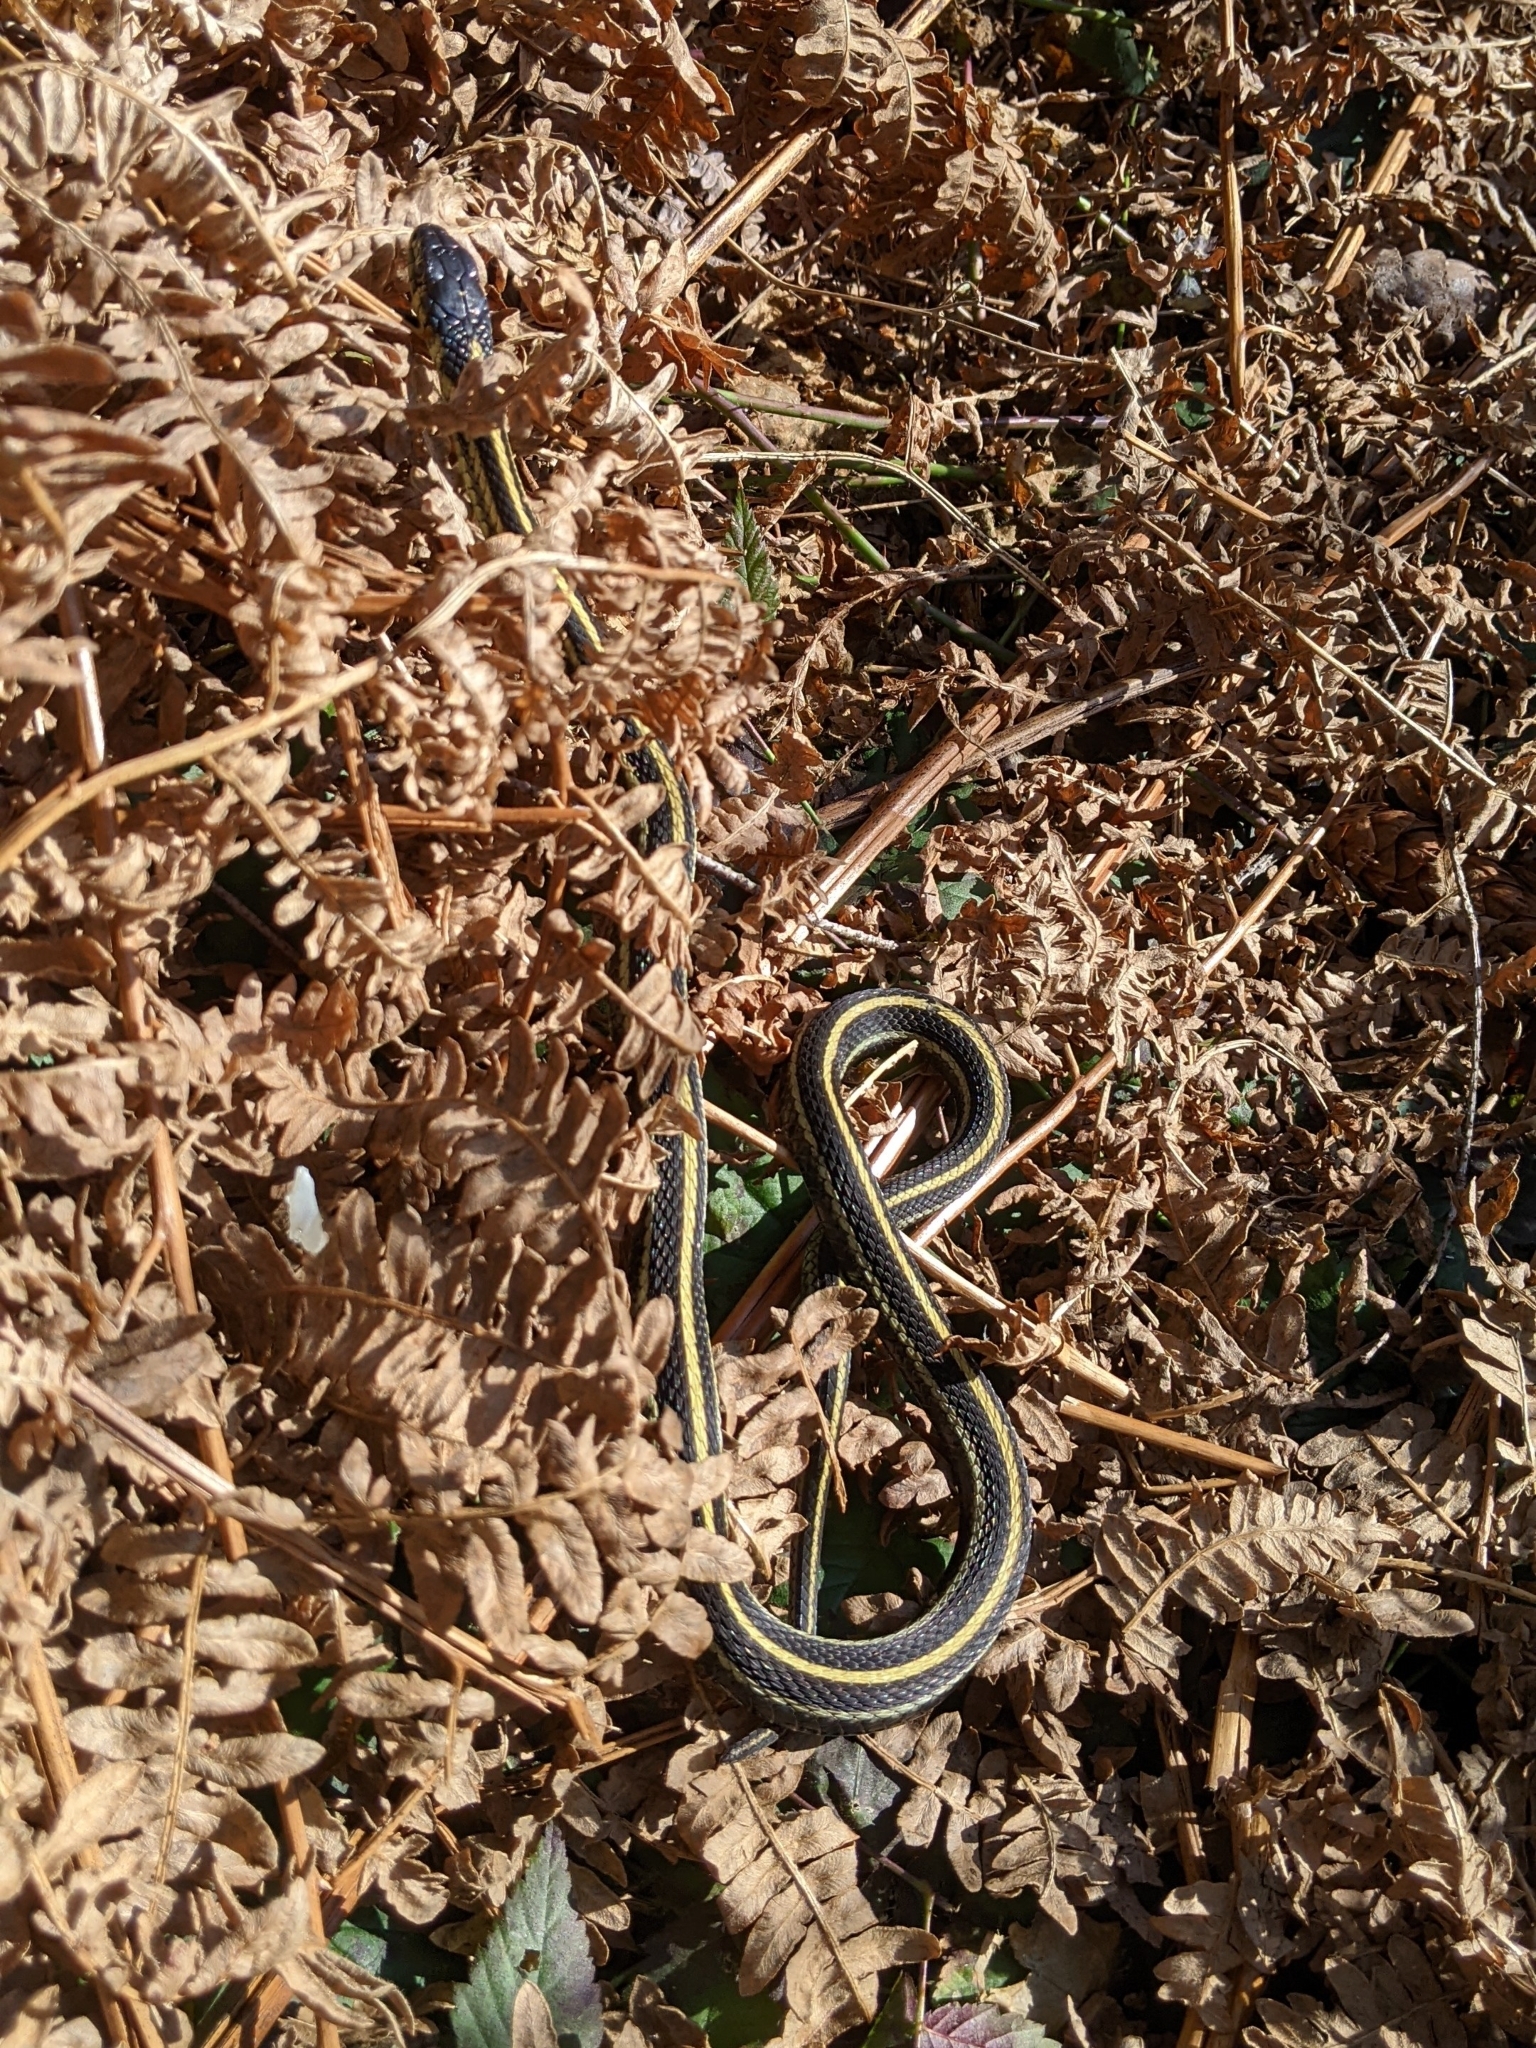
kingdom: Animalia
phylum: Chordata
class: Squamata
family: Colubridae
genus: Thamnophis
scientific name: Thamnophis sirtalis
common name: Common garter snake
